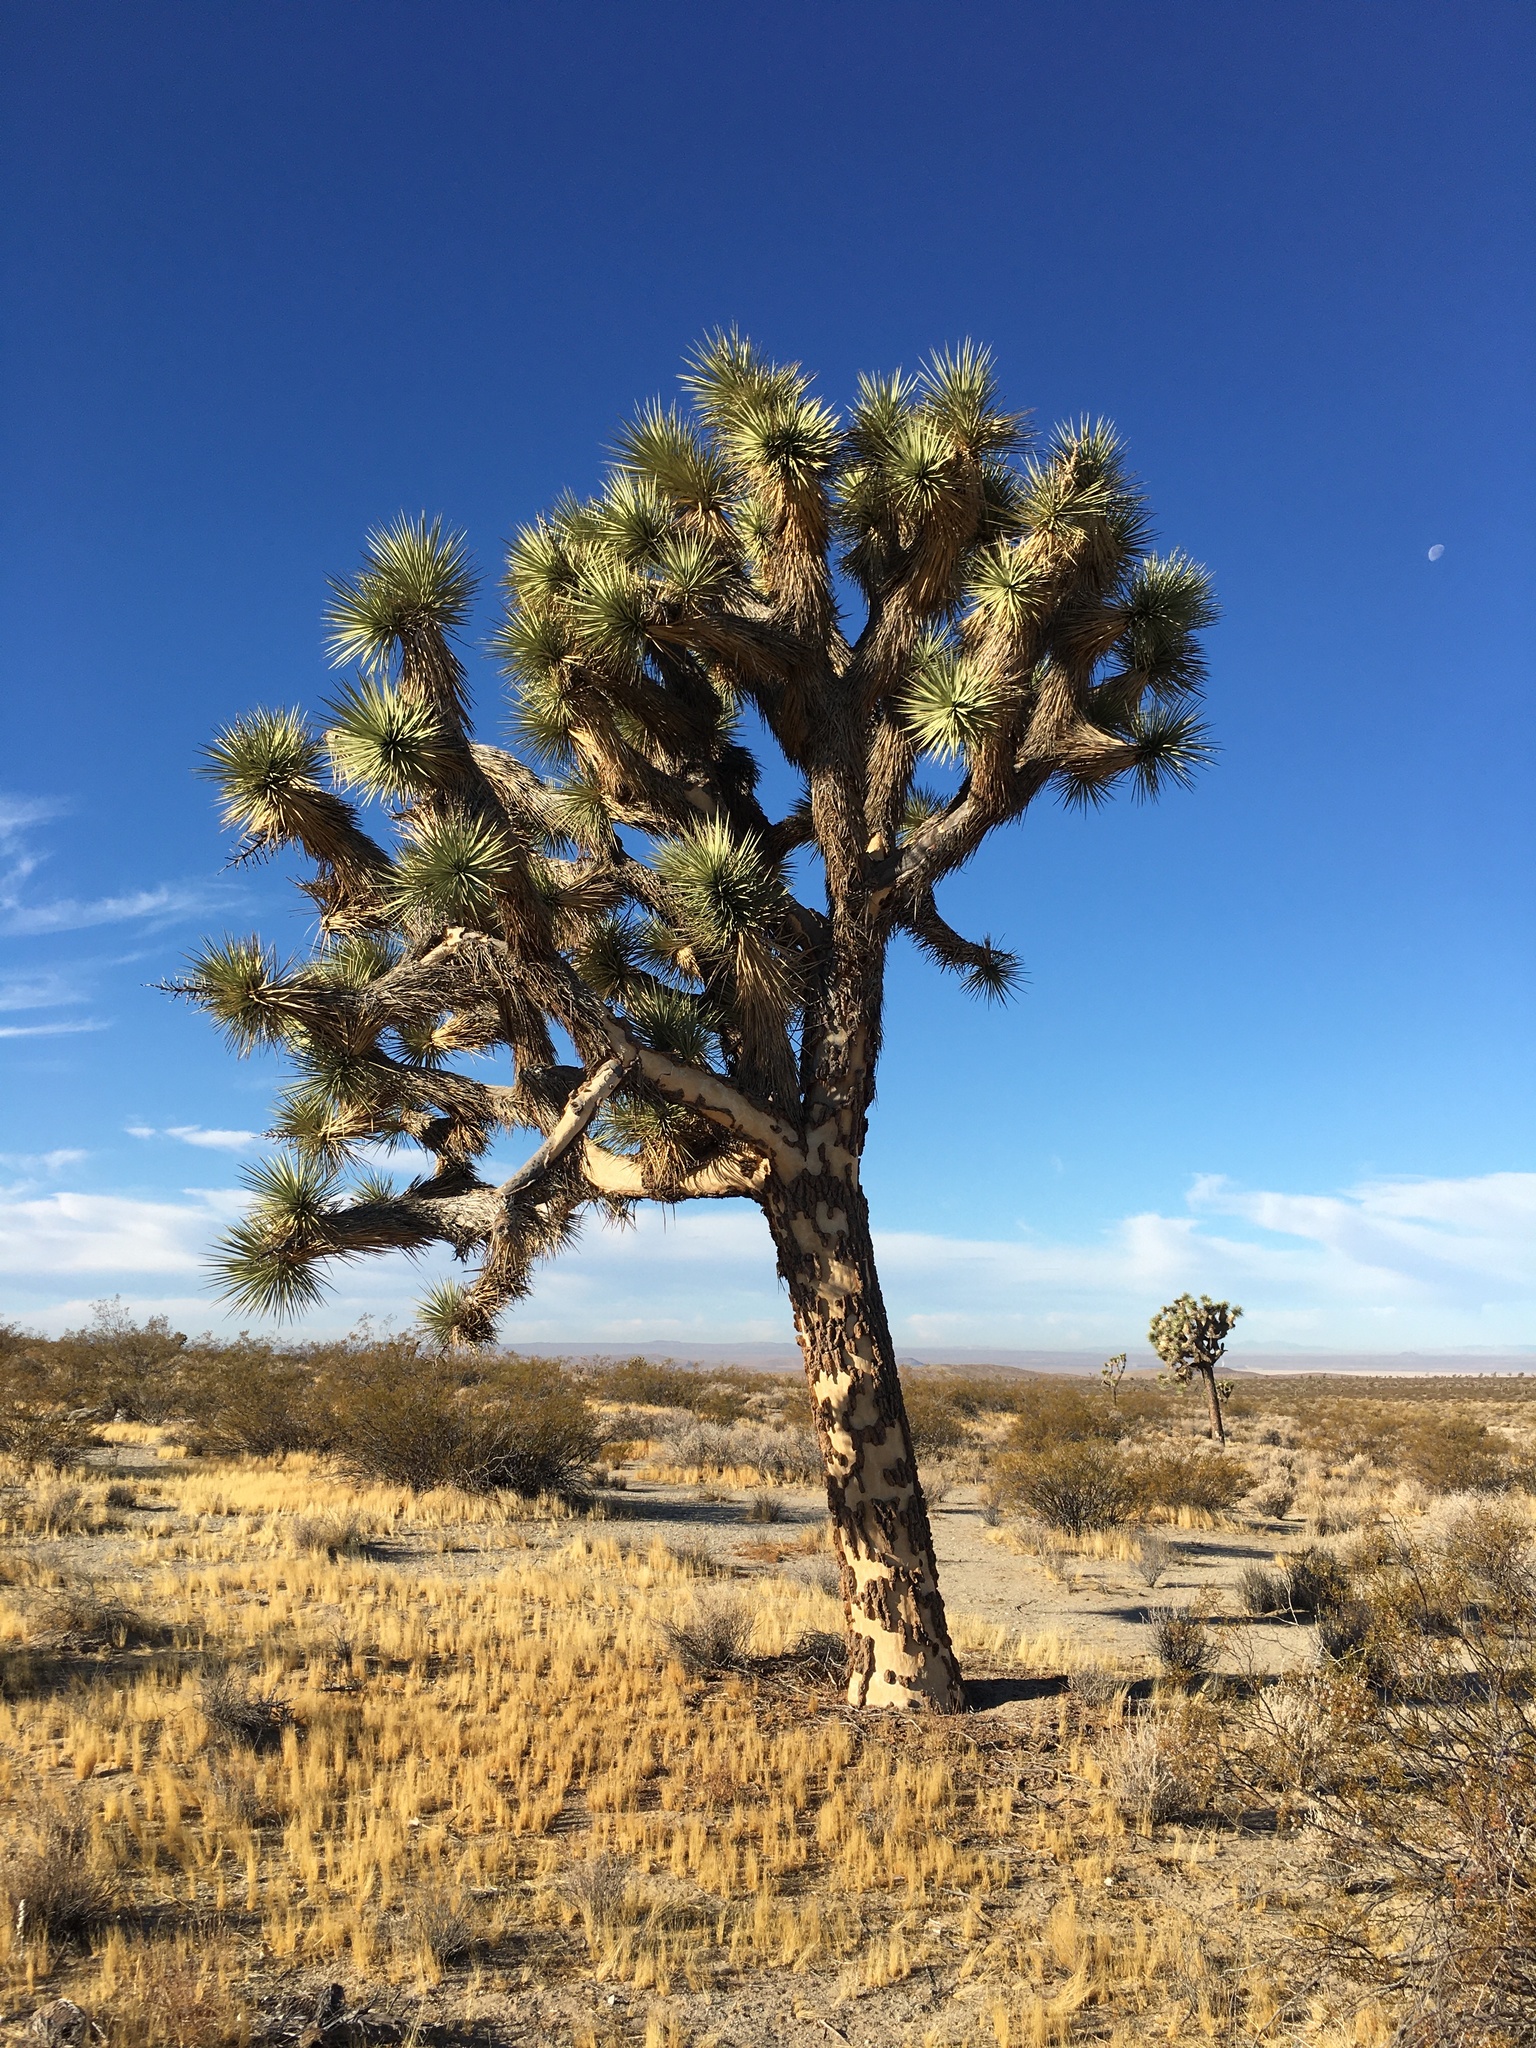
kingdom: Plantae
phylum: Tracheophyta
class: Liliopsida
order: Asparagales
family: Asparagaceae
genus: Yucca
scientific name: Yucca brevifolia
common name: Joshua tree
